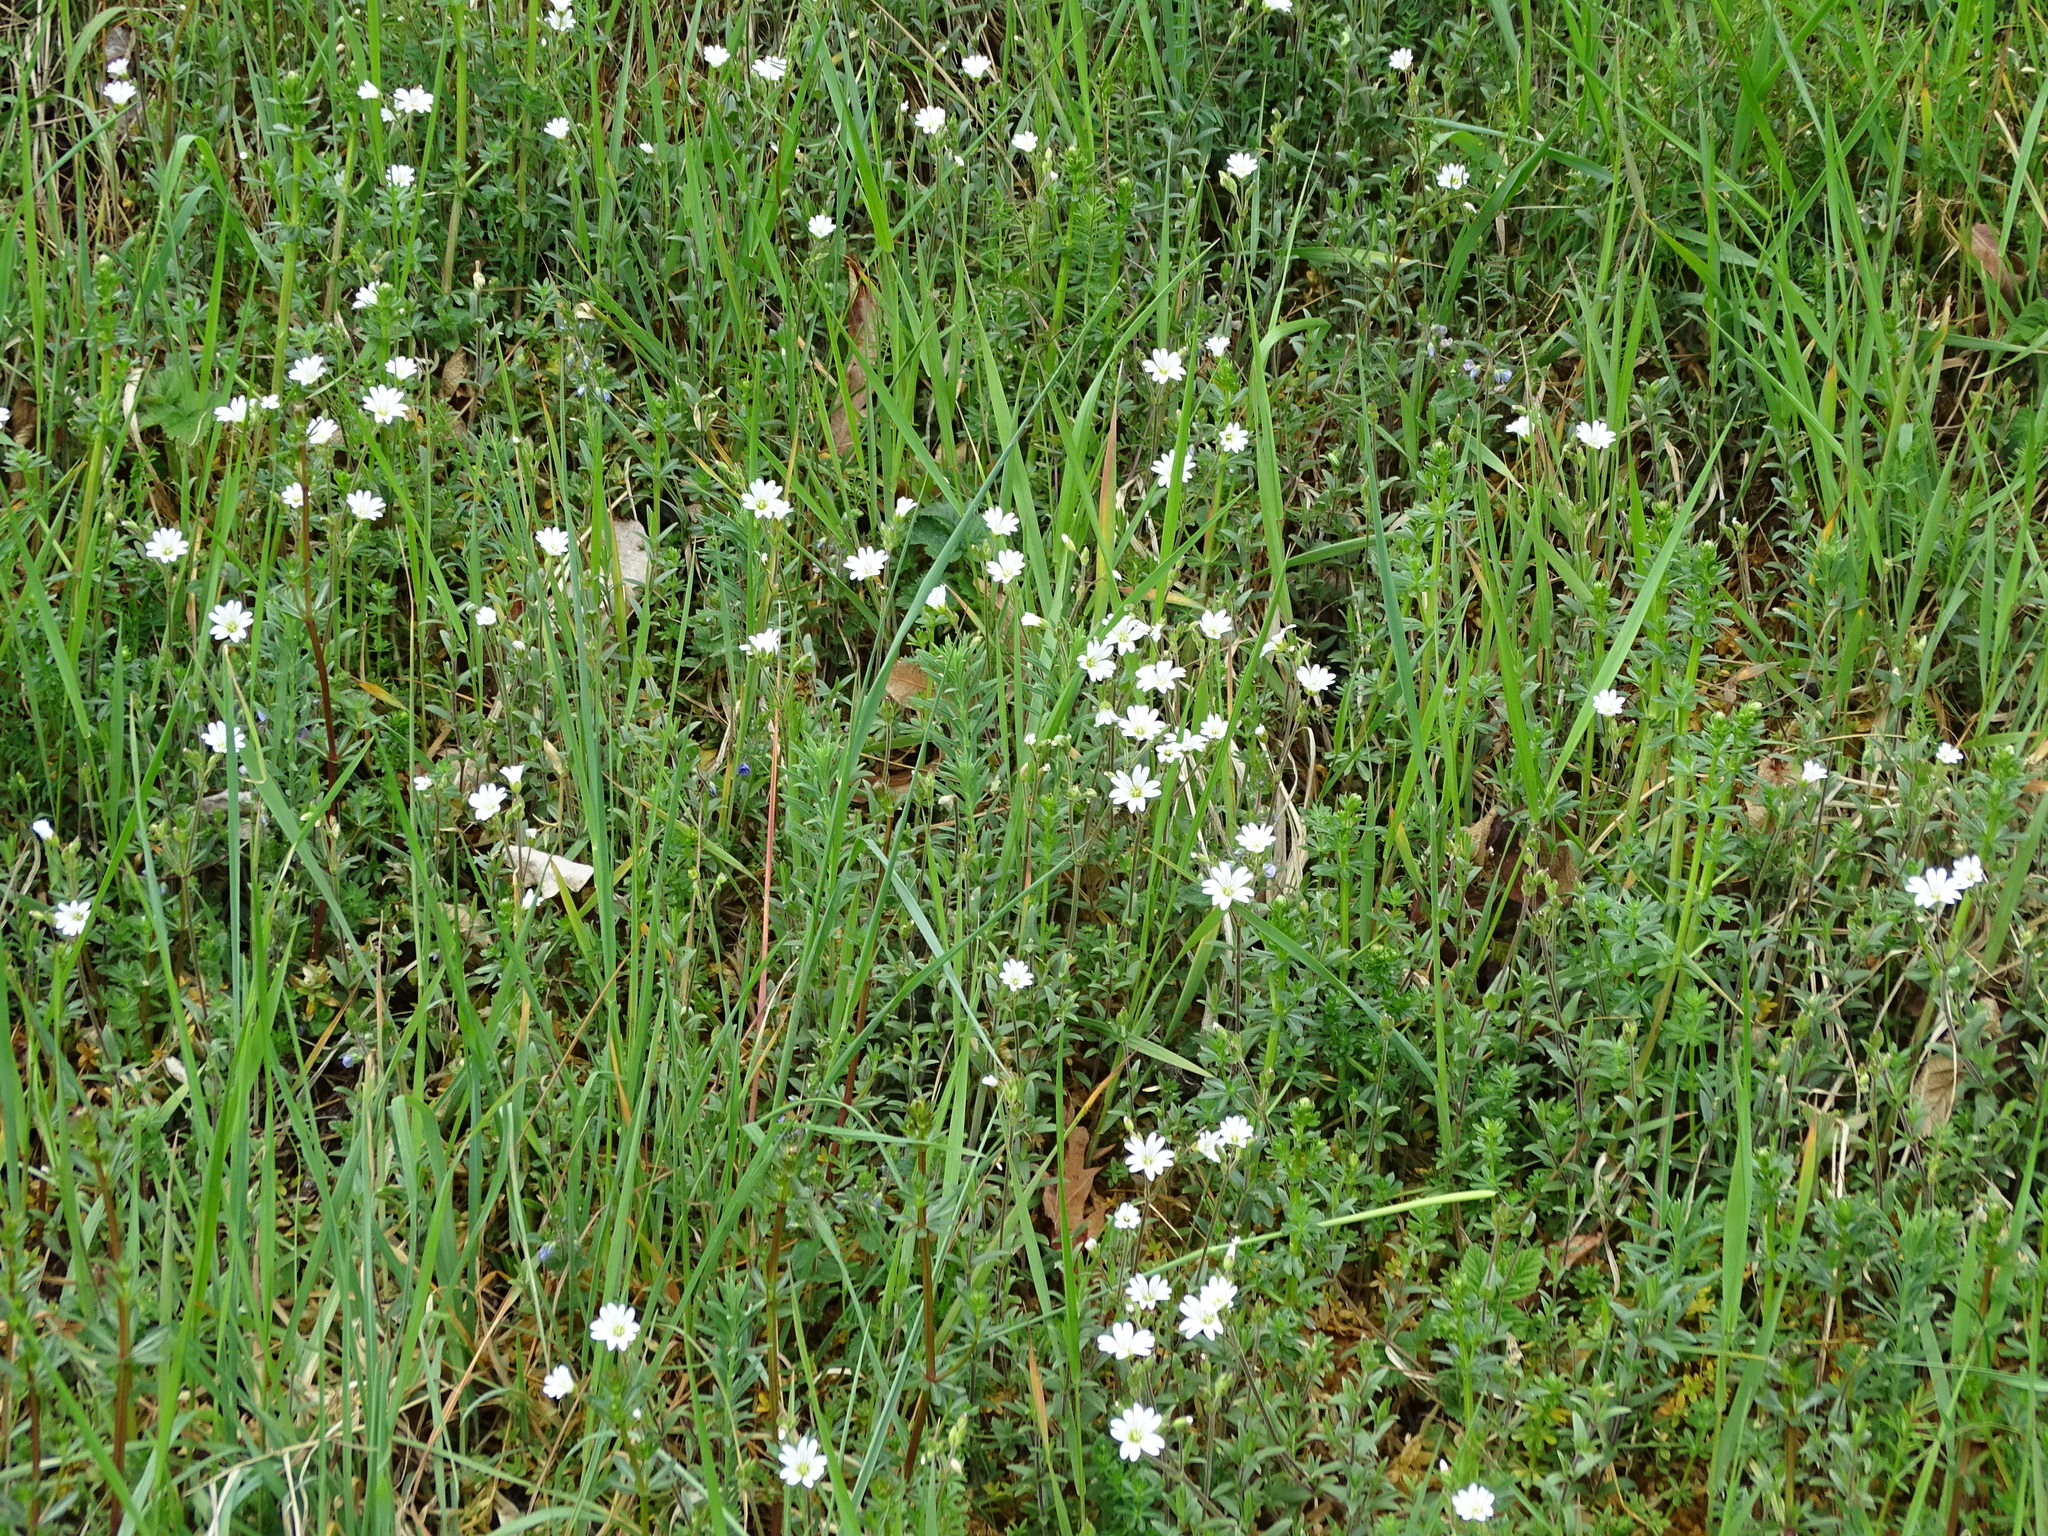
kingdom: Plantae
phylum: Tracheophyta
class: Magnoliopsida
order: Caryophyllales
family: Caryophyllaceae
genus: Cerastium
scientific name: Cerastium arvense
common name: Field mouse-ear
